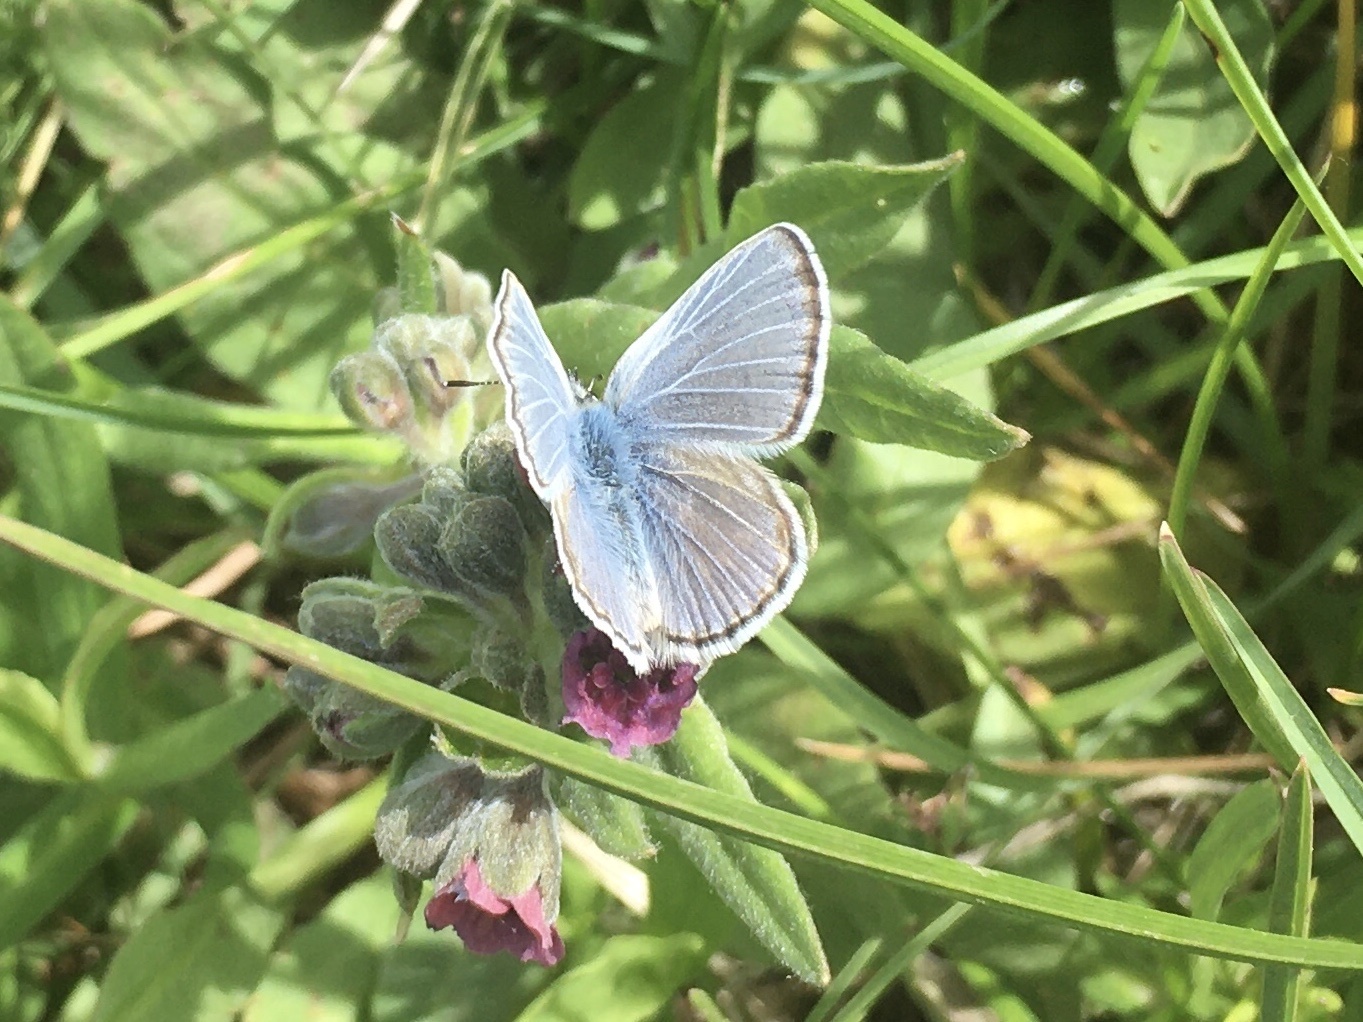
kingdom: Animalia
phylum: Arthropoda
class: Insecta
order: Lepidoptera
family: Lycaenidae
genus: Icaricia
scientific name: Icaricia icarioides
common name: Boisduval's blue
